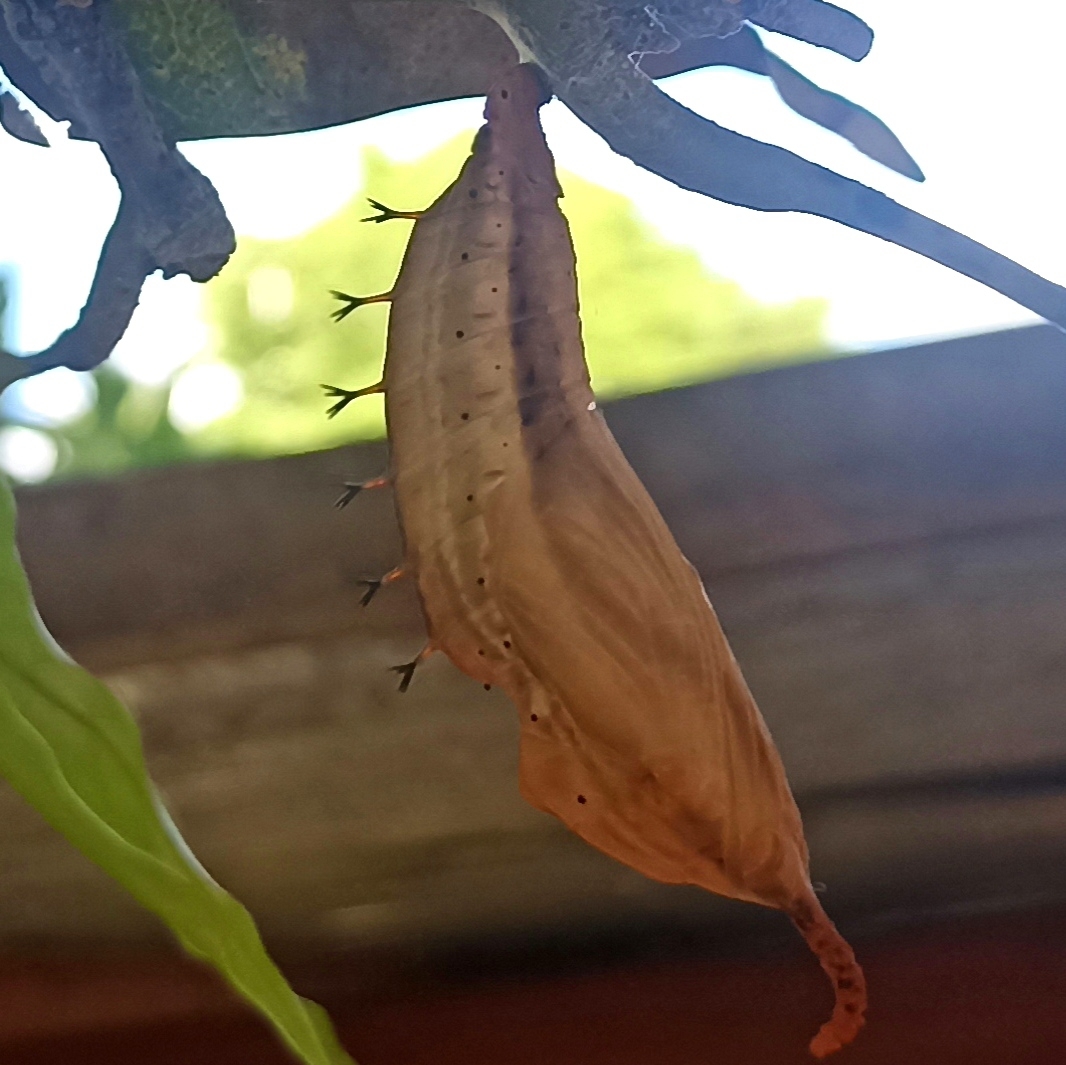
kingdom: Animalia
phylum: Arthropoda
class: Insecta
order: Lepidoptera
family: Nymphalidae
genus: Historis
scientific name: Historis odius
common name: Orion cecropian
